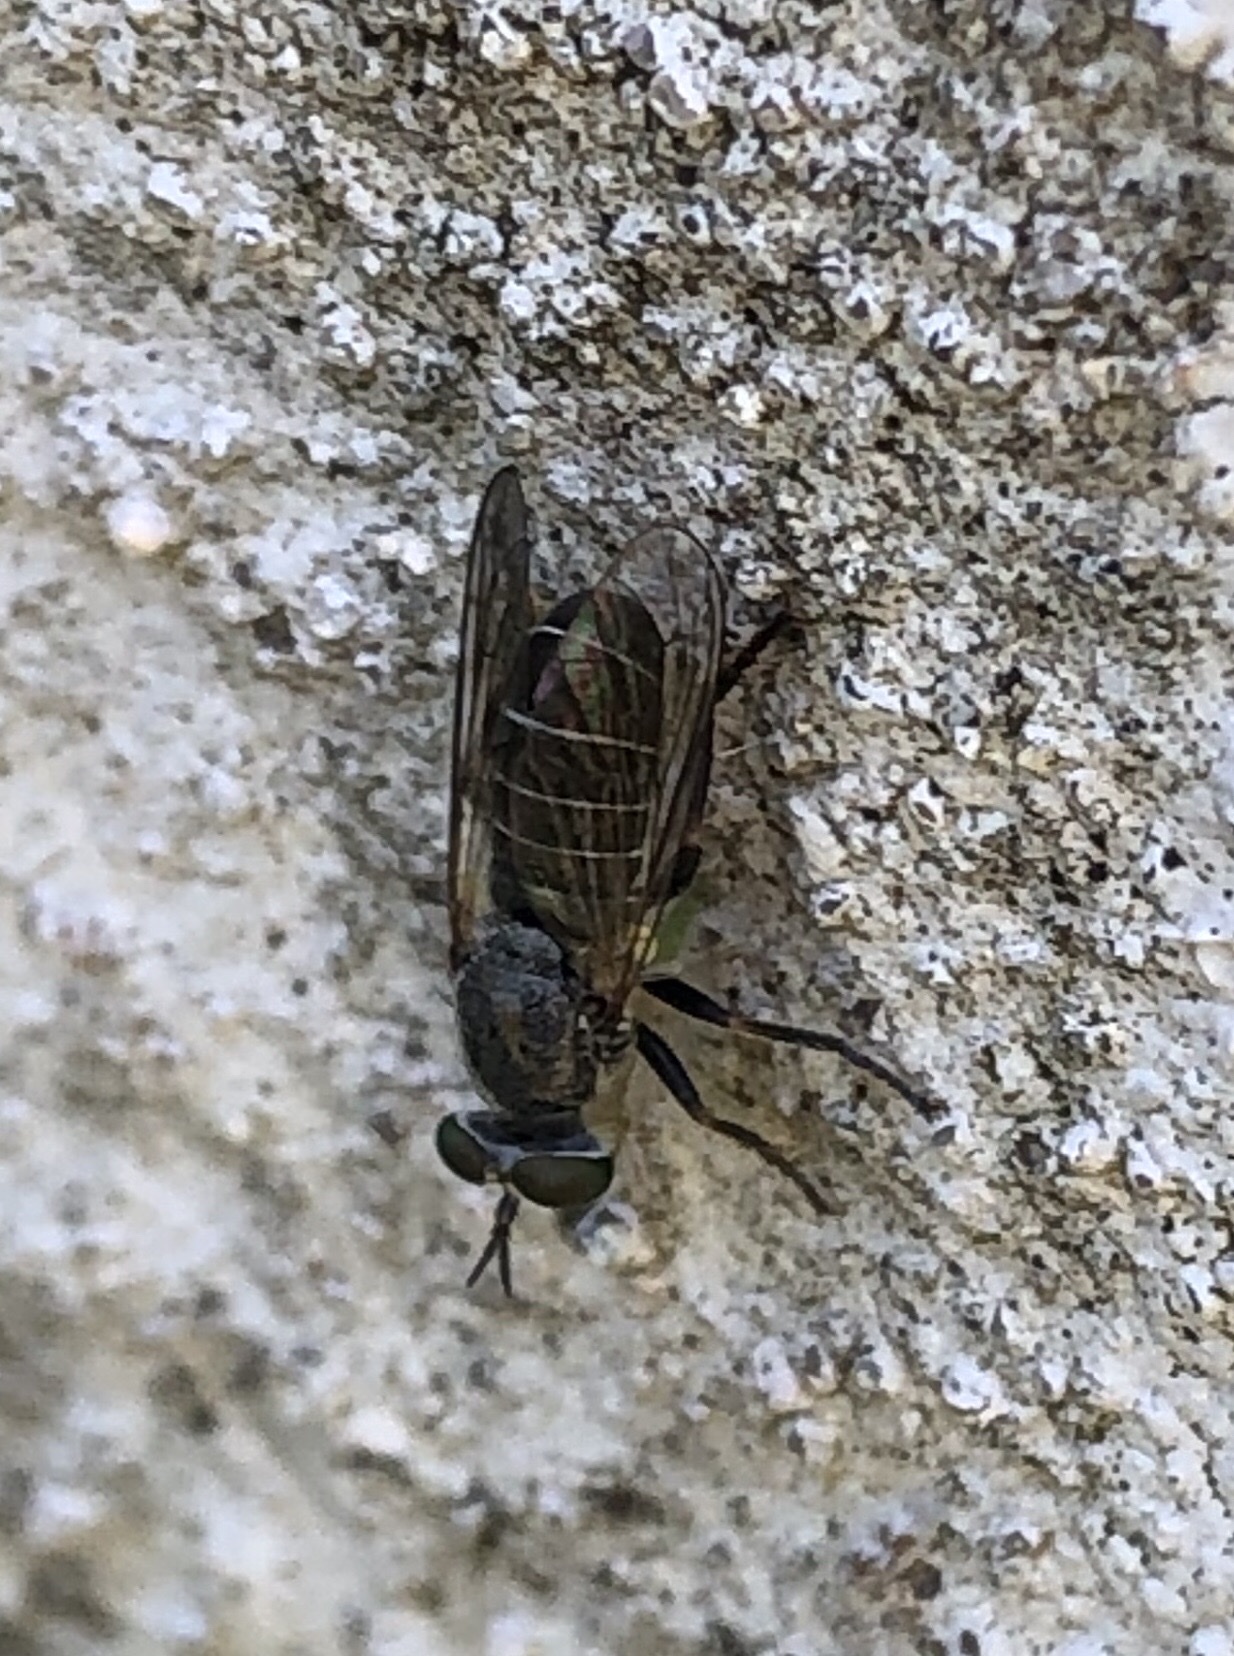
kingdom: Animalia
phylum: Arthropoda
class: Insecta
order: Diptera
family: Asilidae
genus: Atomosia
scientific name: Atomosia melanopogon
